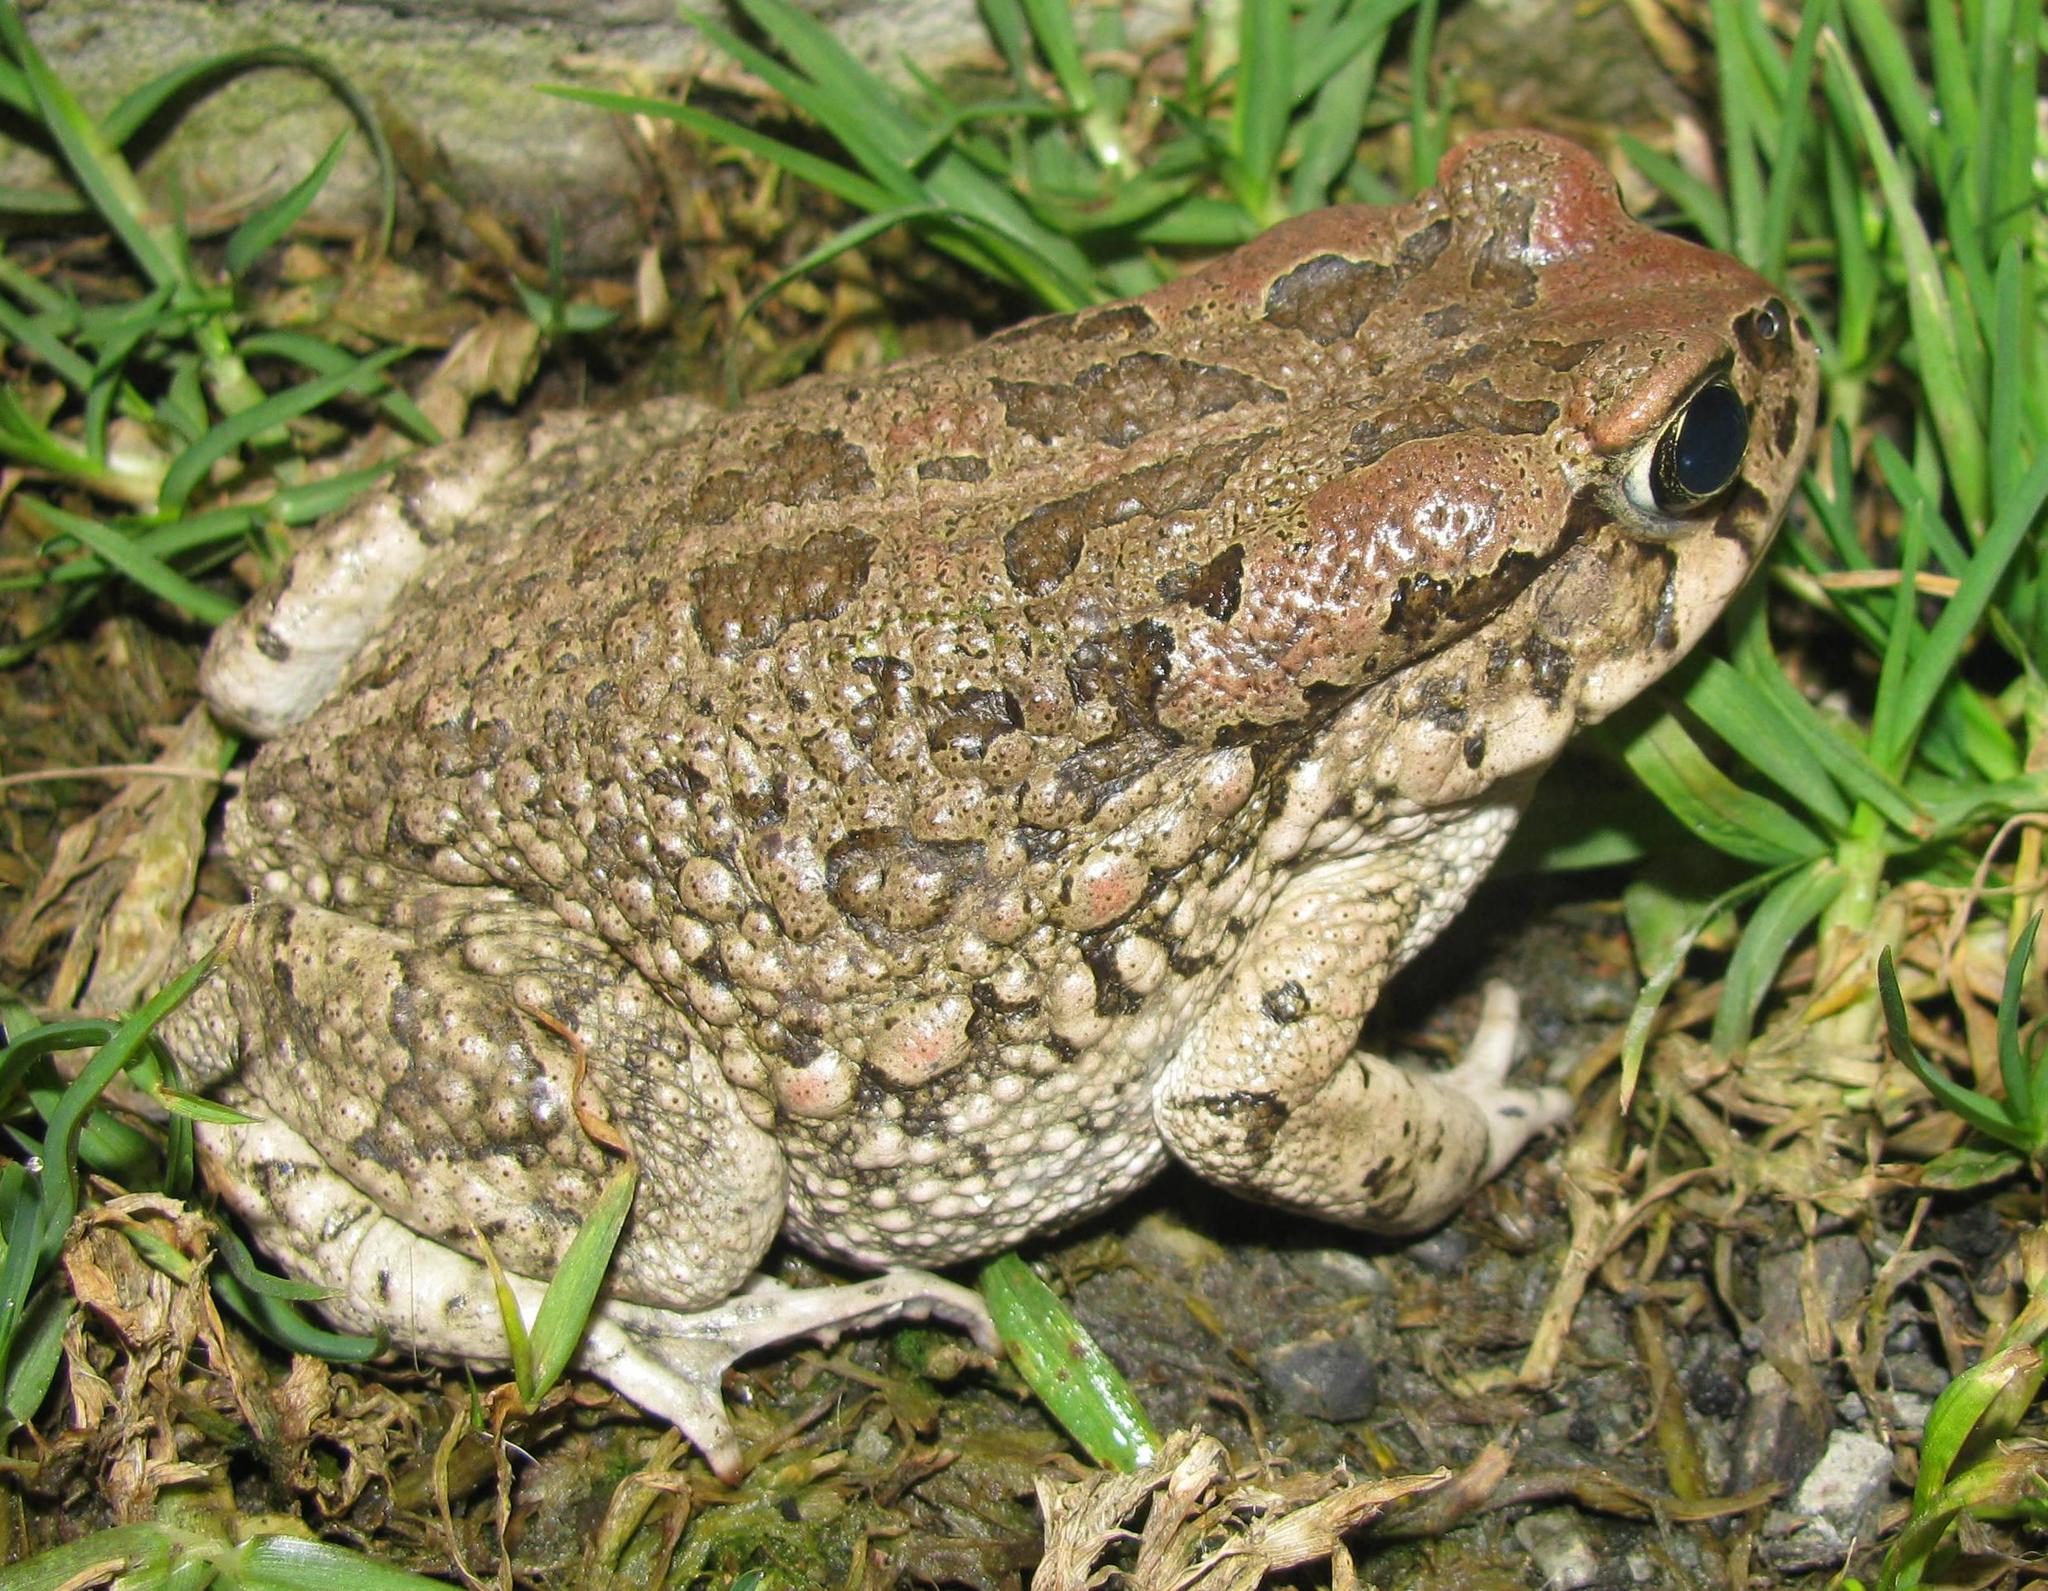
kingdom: Animalia
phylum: Chordata
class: Amphibia
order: Anura
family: Bufonidae
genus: Sclerophrys
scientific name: Sclerophrys capensis
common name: Ranger’s toad
